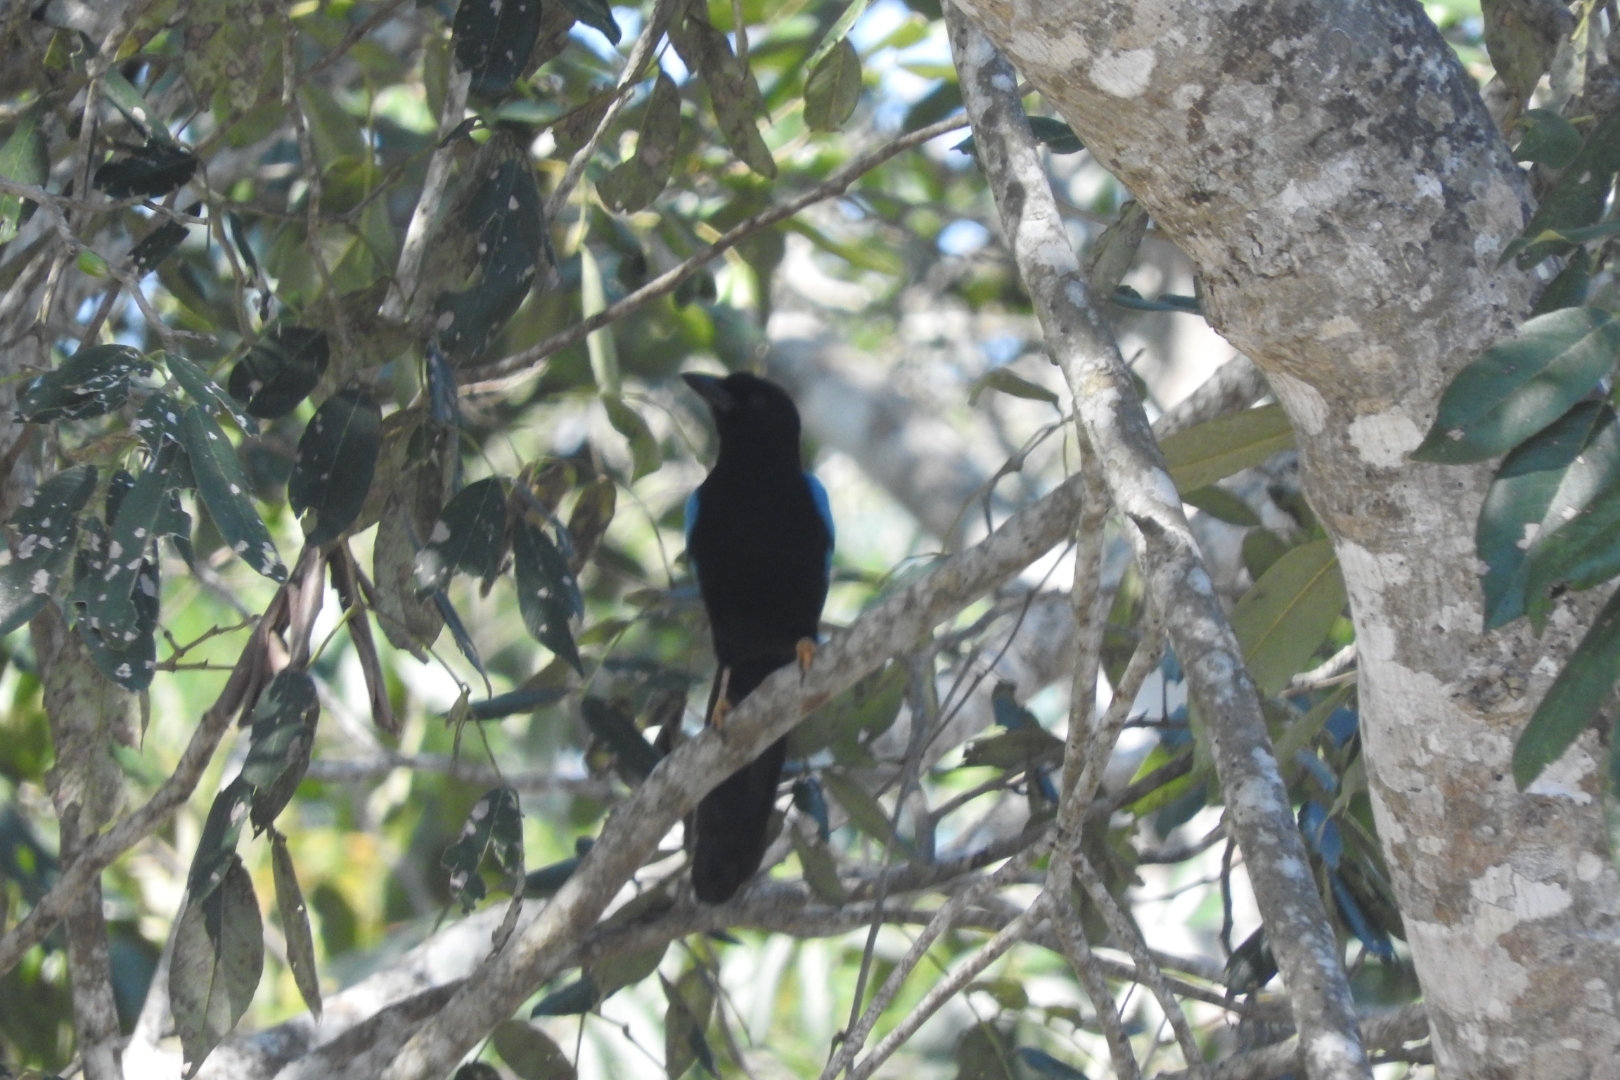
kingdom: Animalia
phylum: Chordata
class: Aves
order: Passeriformes
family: Corvidae
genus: Cyanocorax
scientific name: Cyanocorax yucatanicus
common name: Yucatan jay
